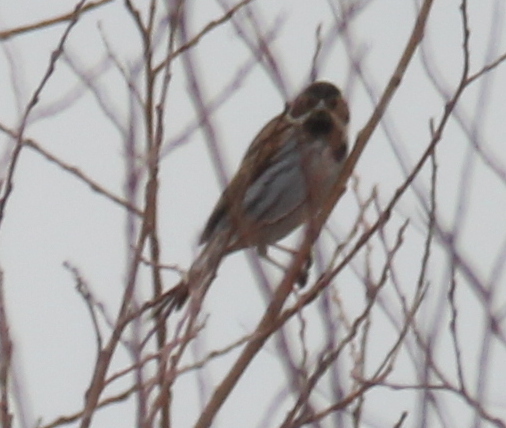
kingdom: Animalia
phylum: Chordata
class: Aves
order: Passeriformes
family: Emberizidae
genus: Emberiza
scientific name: Emberiza schoeniclus
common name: Reed bunting
